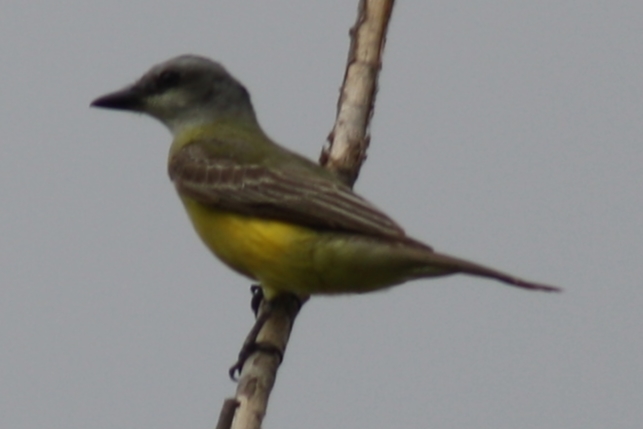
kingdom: Animalia
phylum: Chordata
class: Aves
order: Passeriformes
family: Tyrannidae
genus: Tyrannus
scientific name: Tyrannus
